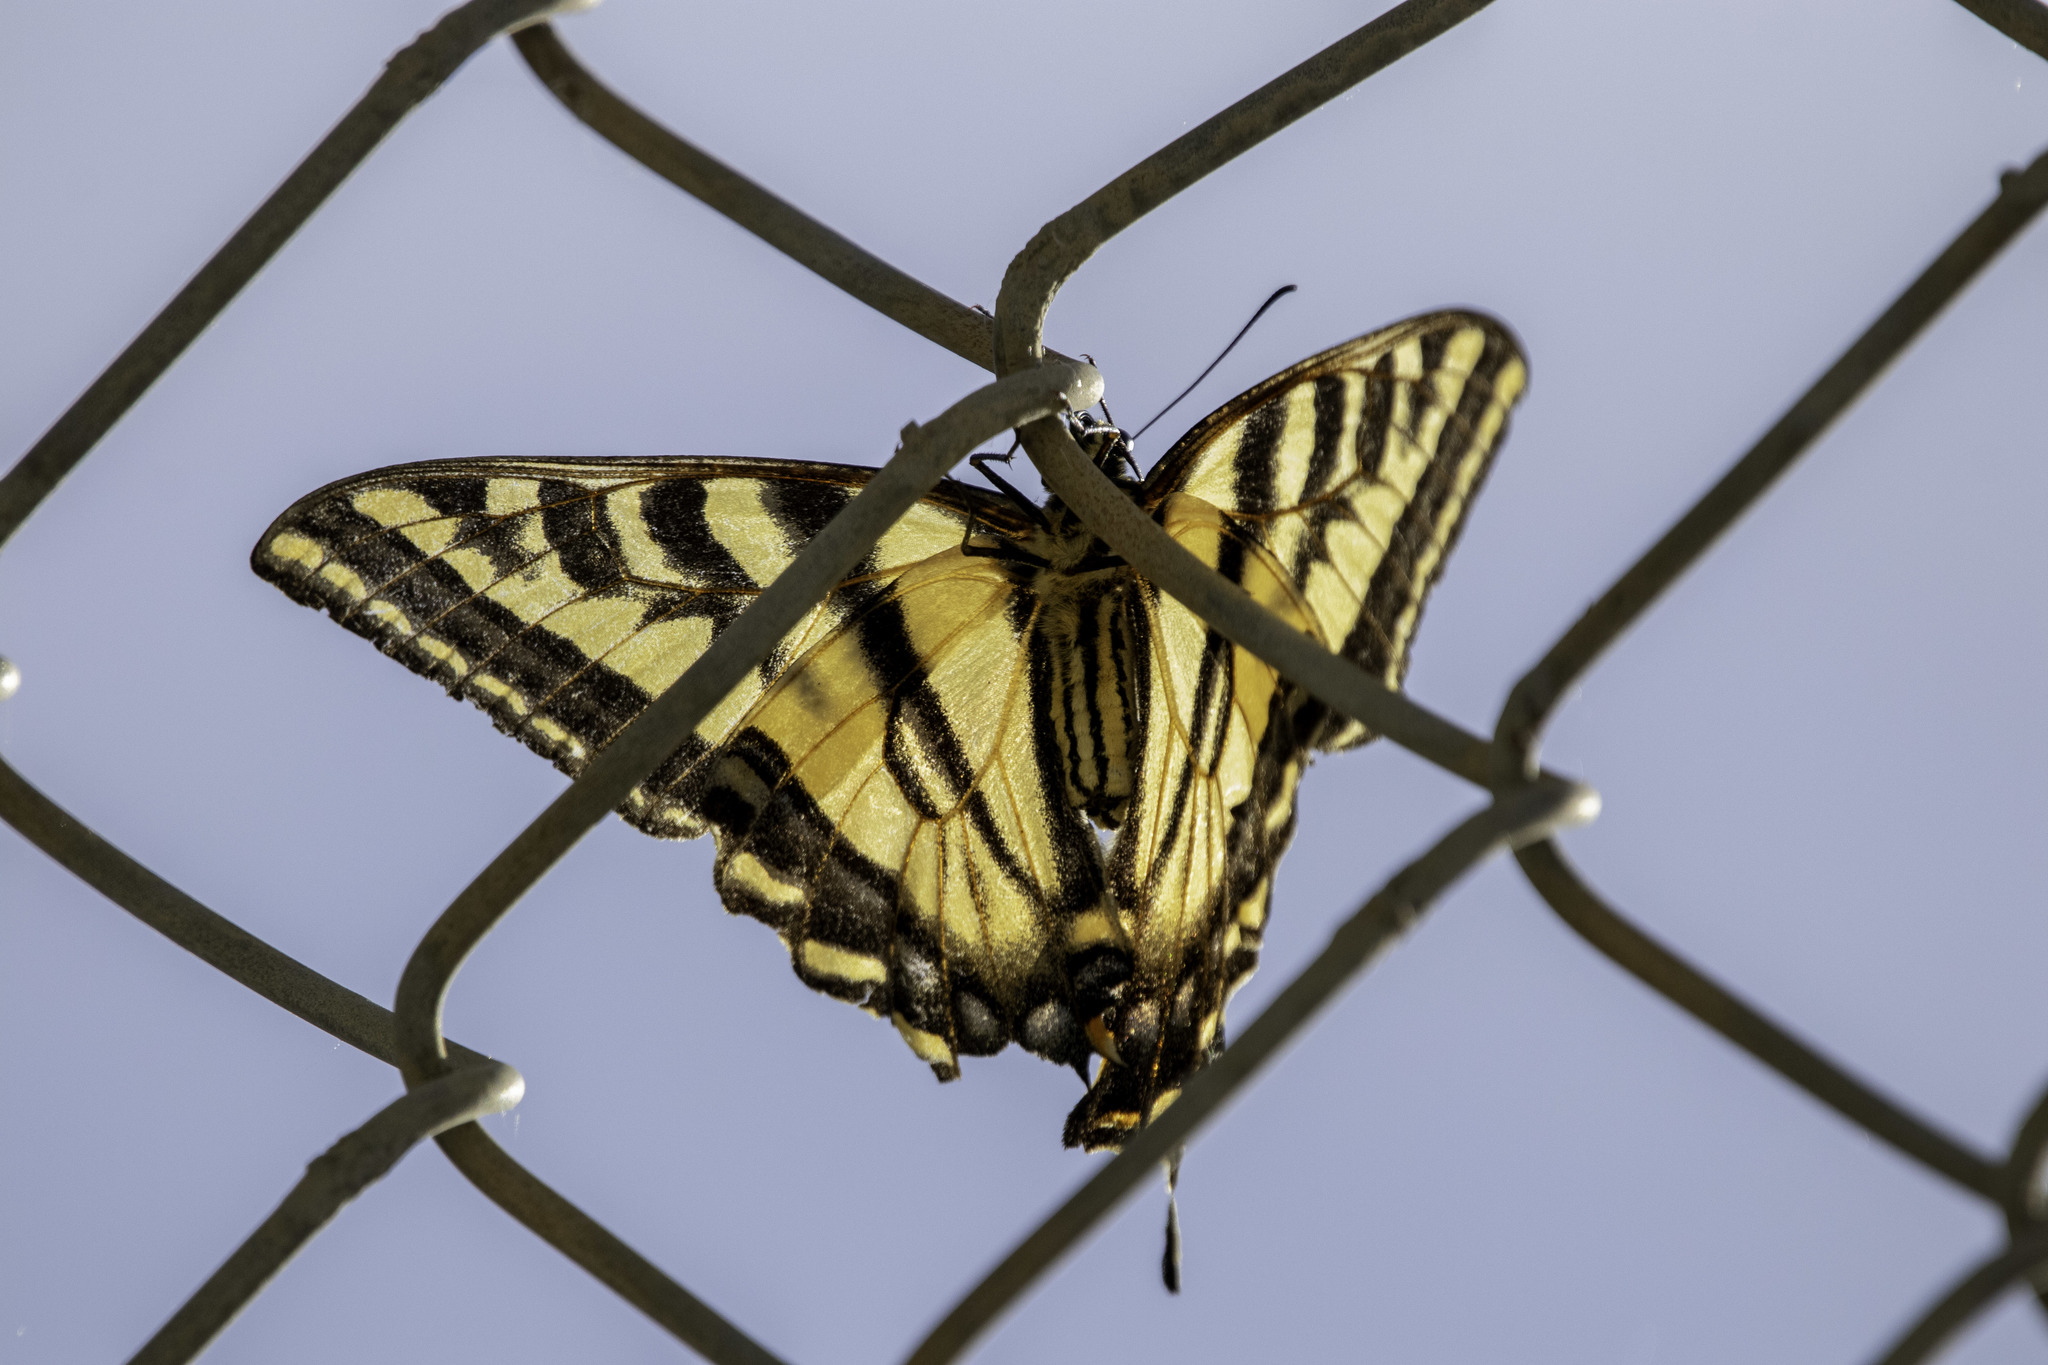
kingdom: Animalia
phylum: Arthropoda
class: Insecta
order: Lepidoptera
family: Papilionidae
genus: Papilio
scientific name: Papilio rutulus
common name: Western tiger swallowtail
